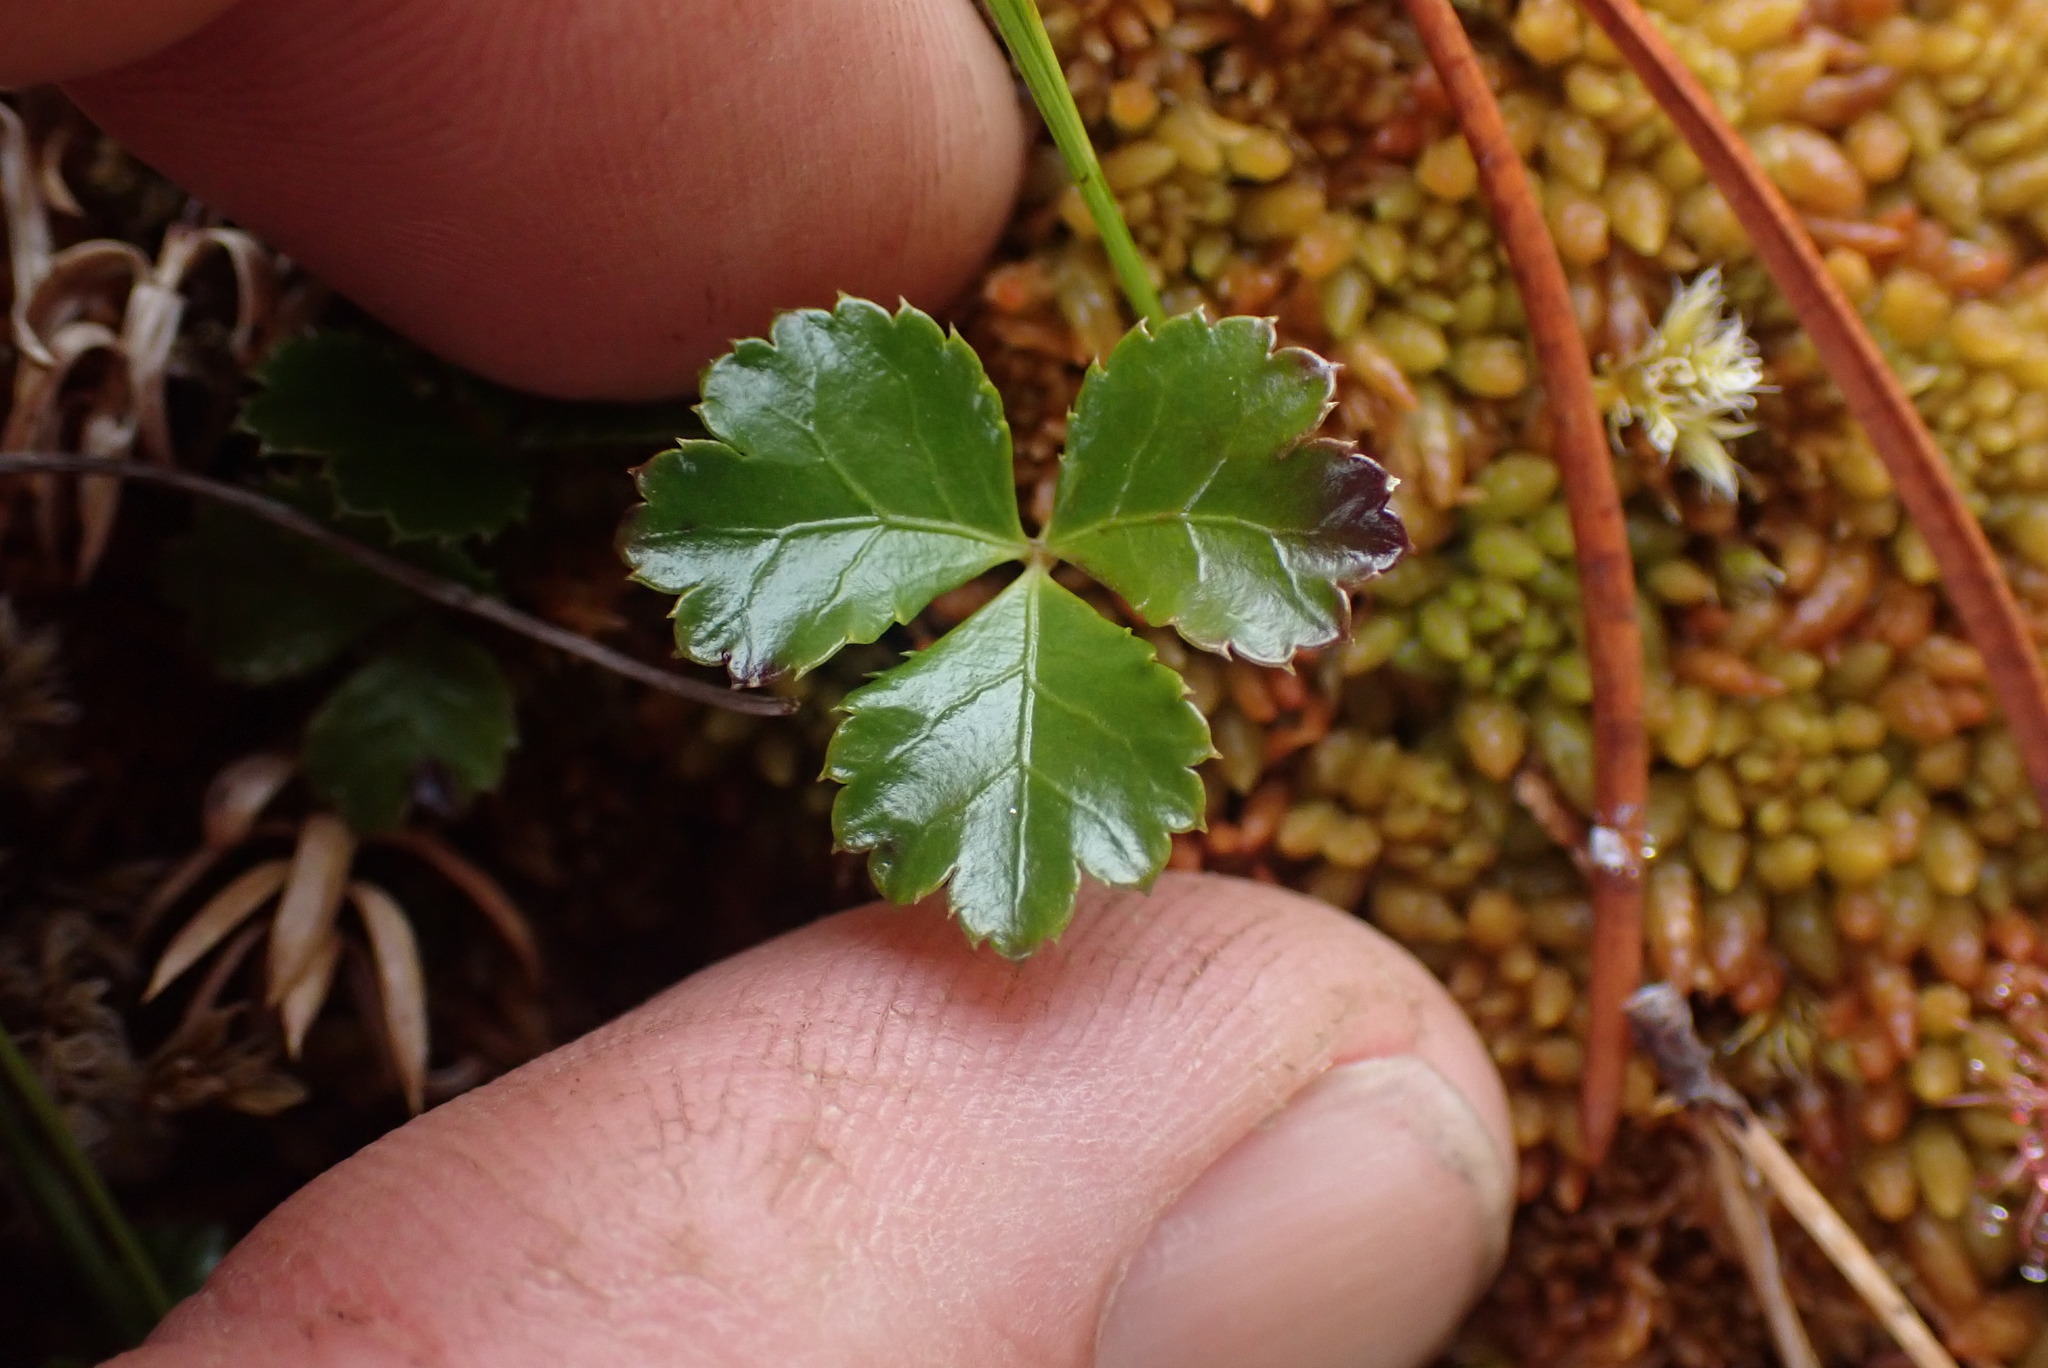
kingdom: Plantae
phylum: Tracheophyta
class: Magnoliopsida
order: Ranunculales
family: Ranunculaceae
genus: Coptis
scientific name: Coptis trifolia
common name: Canker-root
